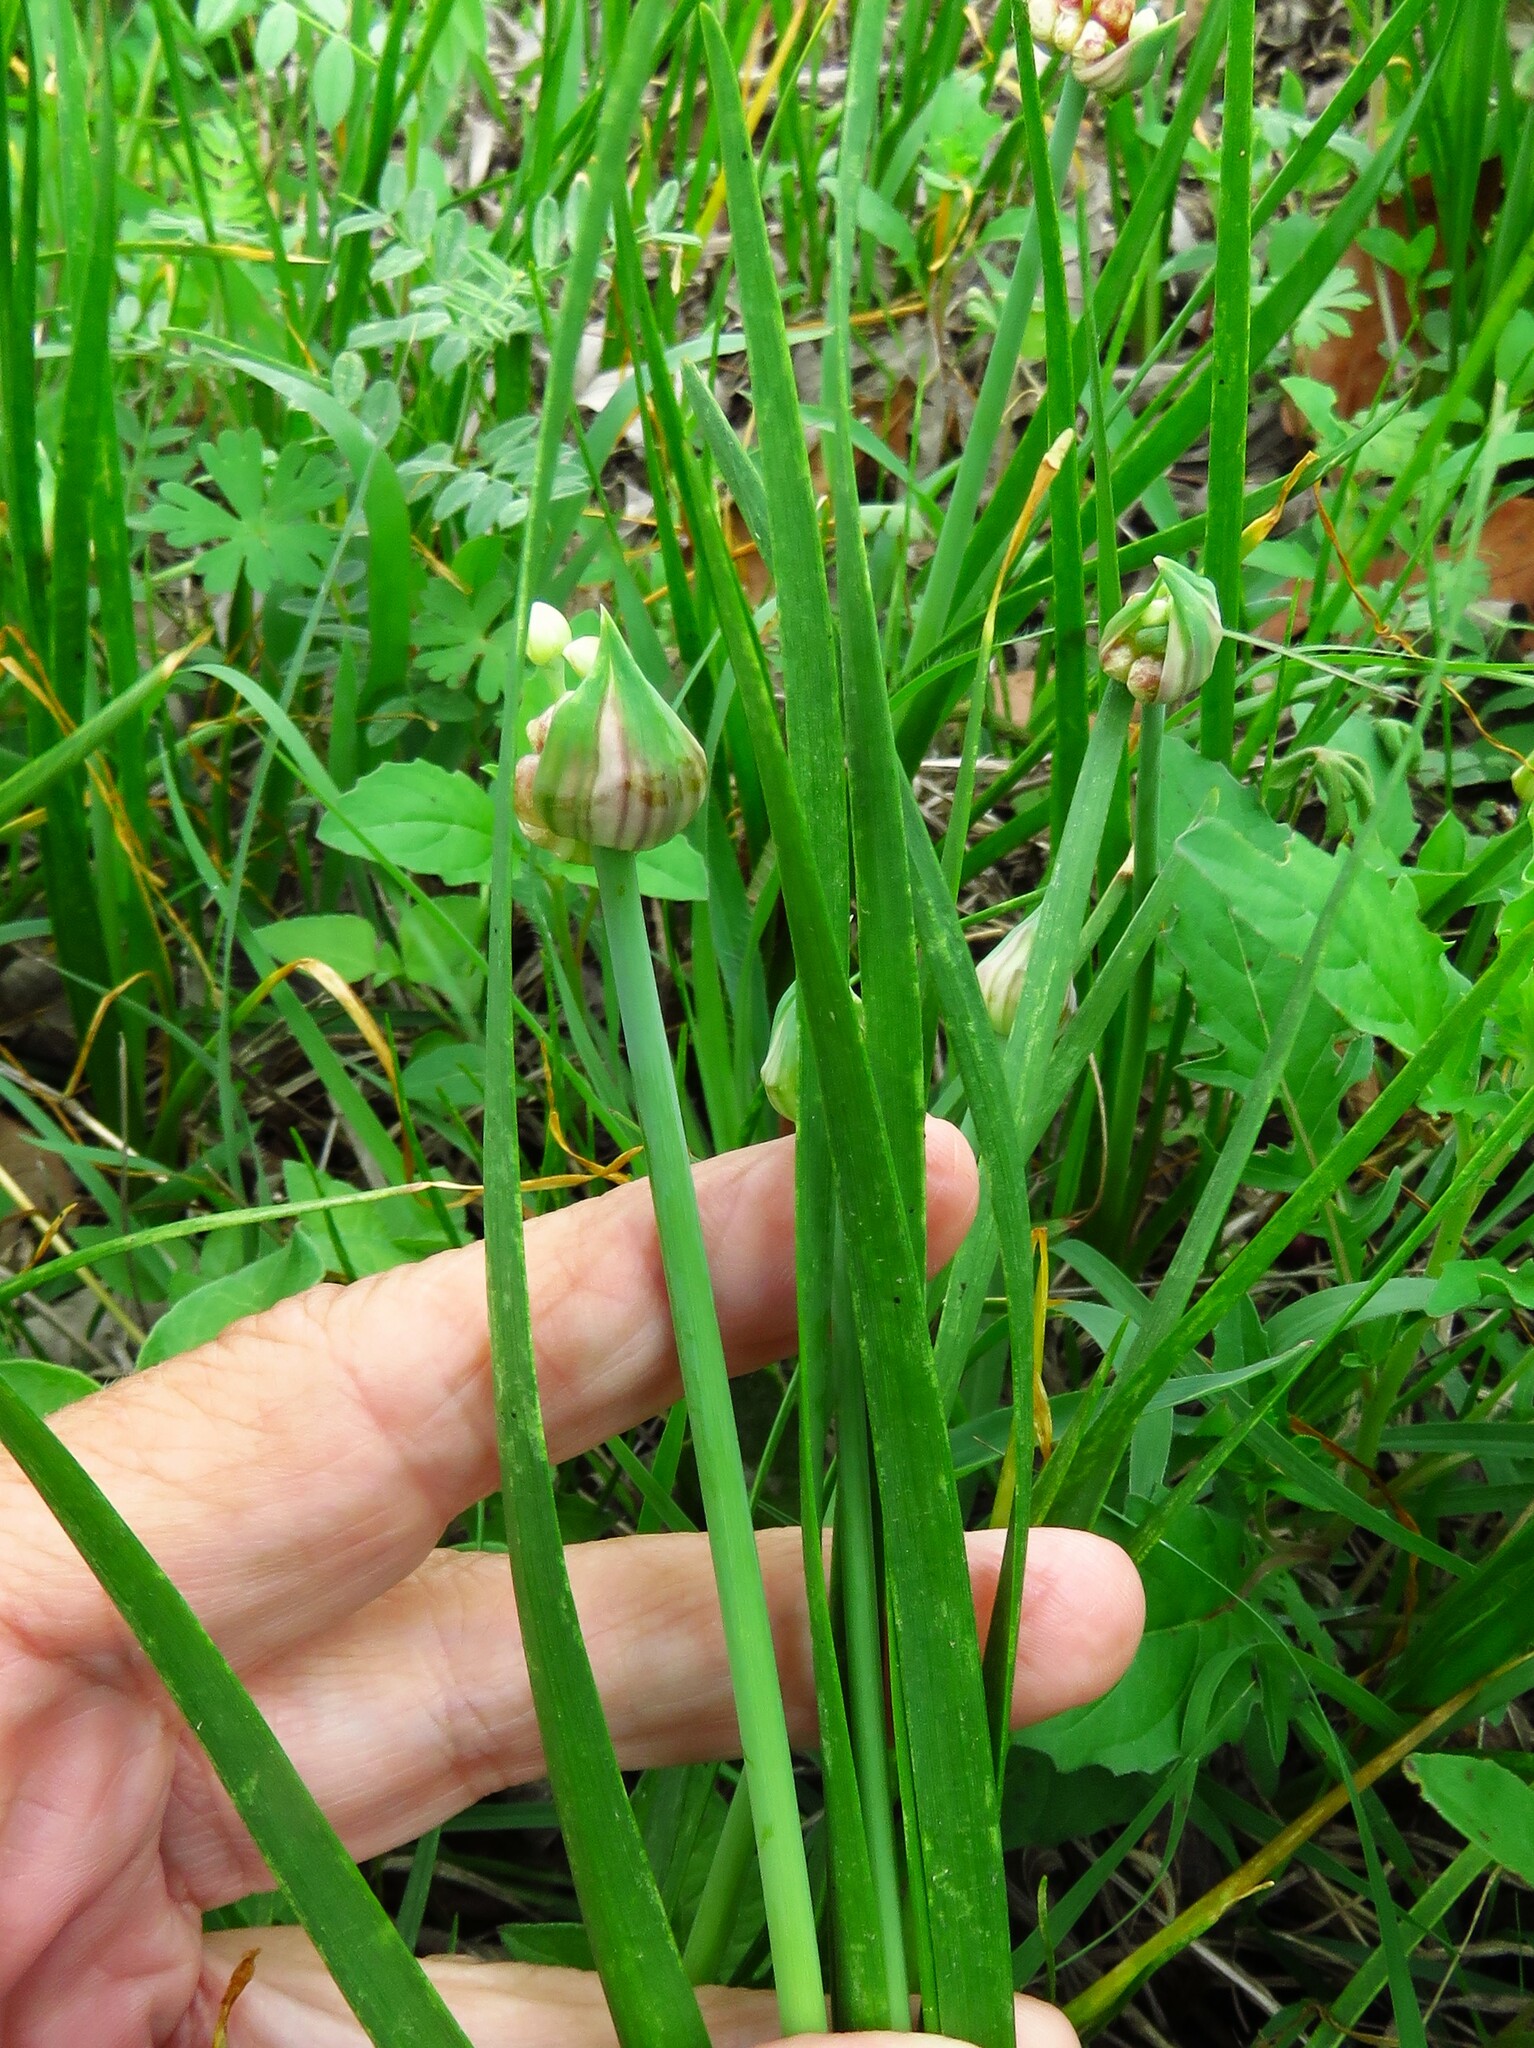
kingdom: Plantae
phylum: Tracheophyta
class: Liliopsida
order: Asparagales
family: Amaryllidaceae
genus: Allium
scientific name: Allium canadense
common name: Meadow garlic
